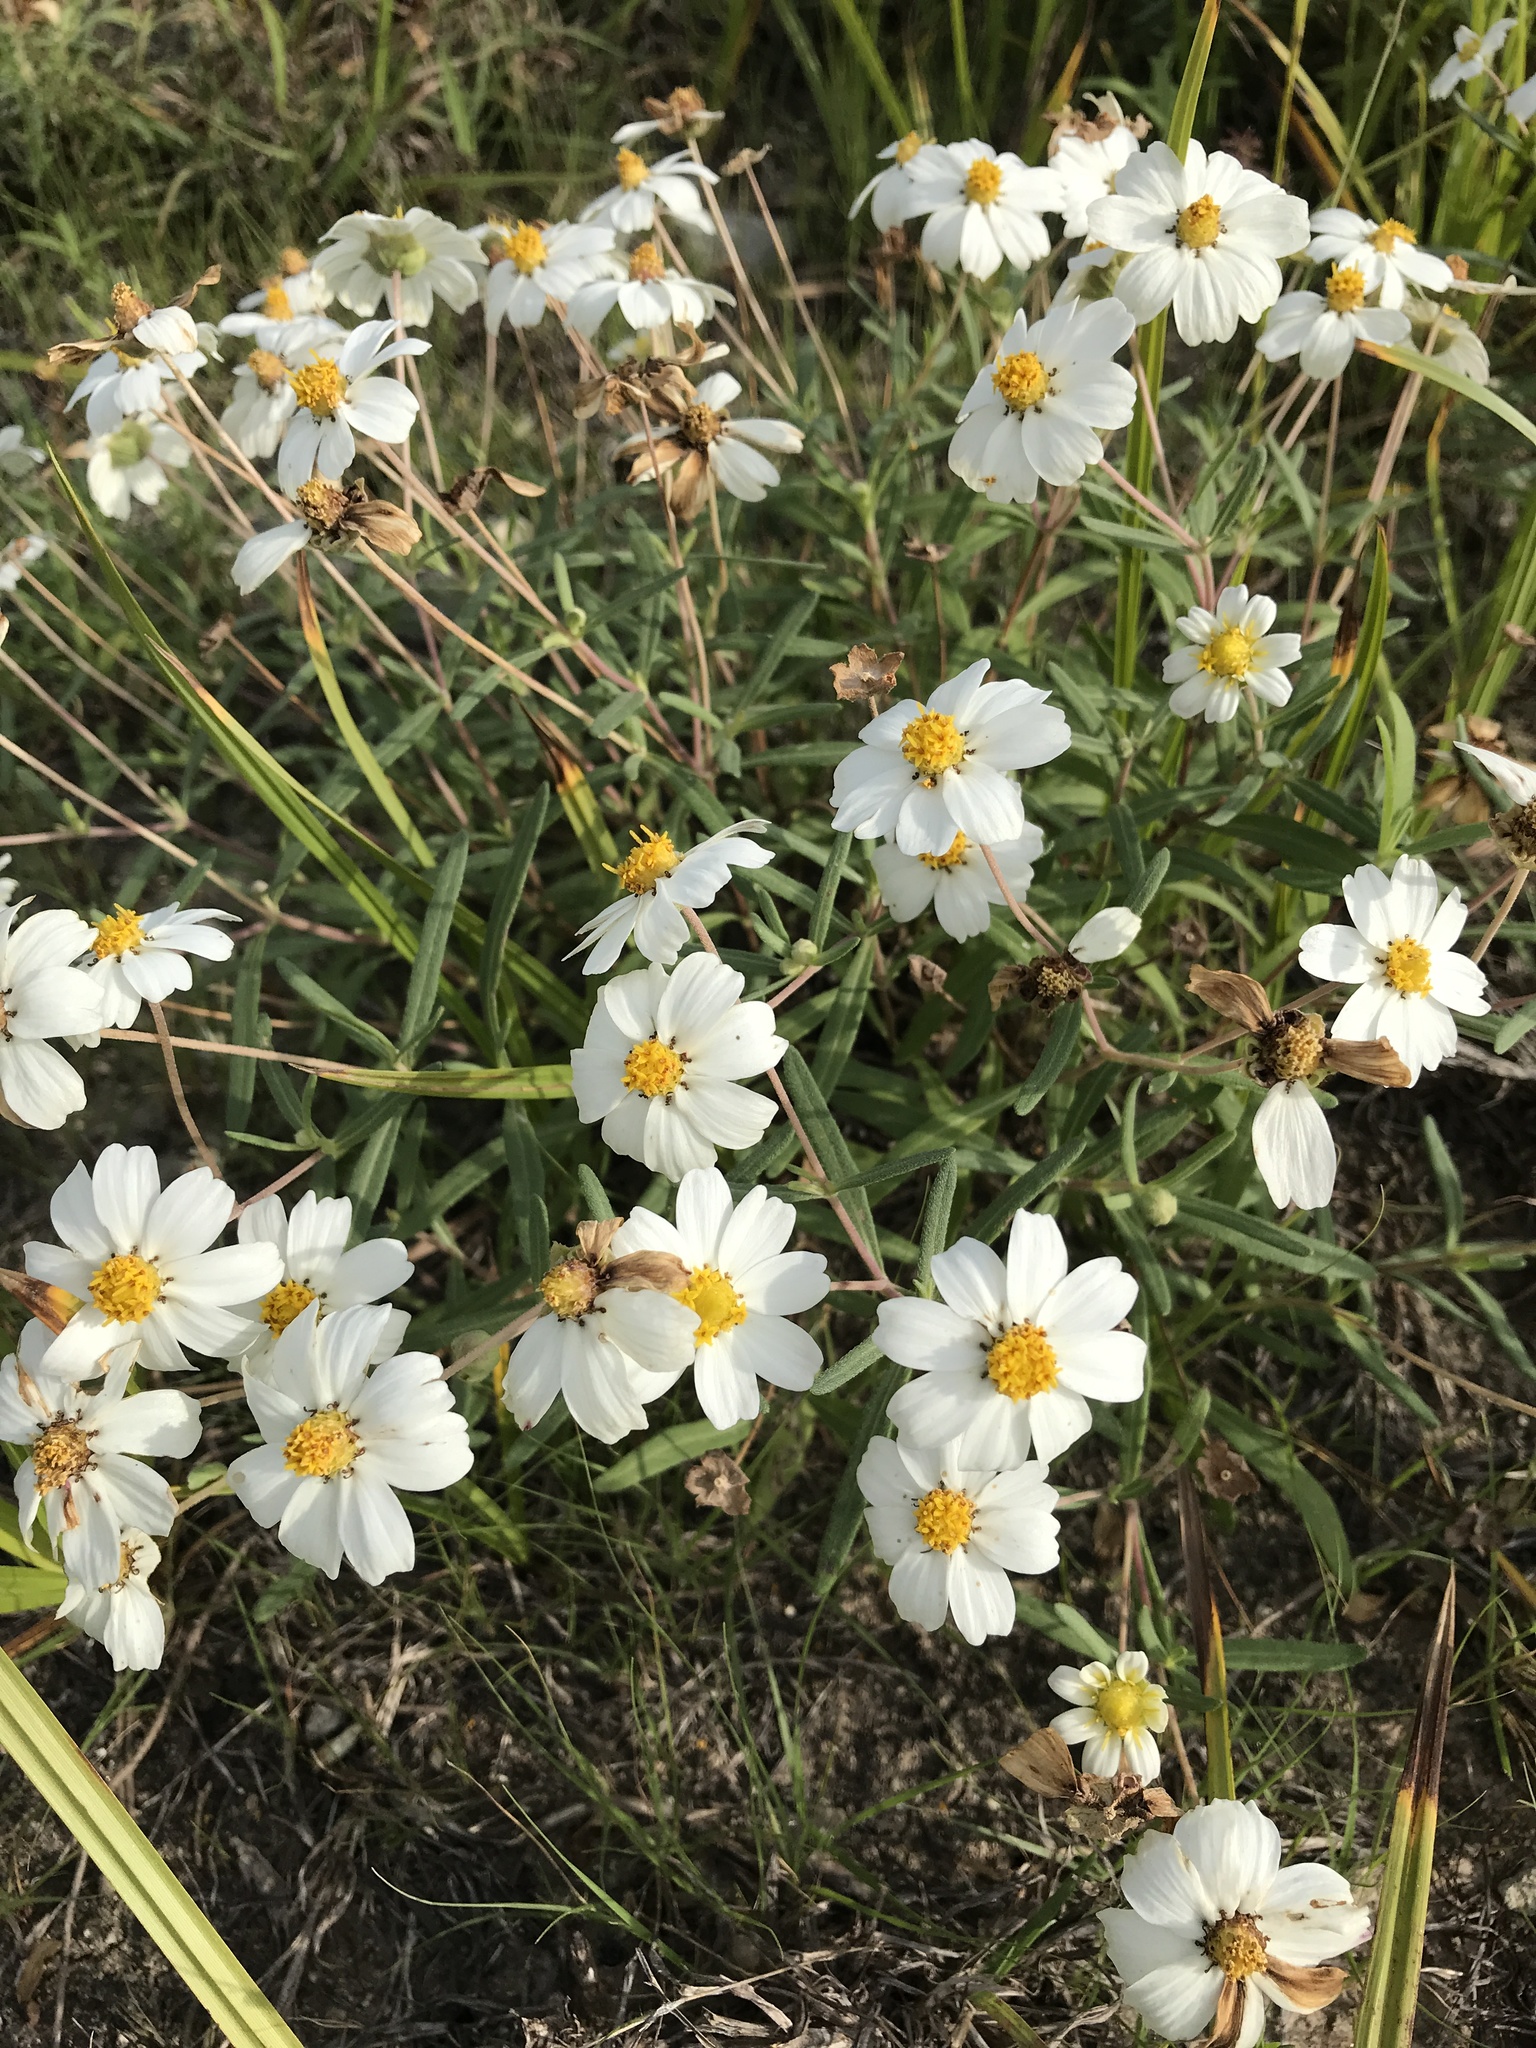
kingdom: Plantae
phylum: Tracheophyta
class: Magnoliopsida
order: Asterales
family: Asteraceae
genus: Melampodium
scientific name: Melampodium leucanthum
